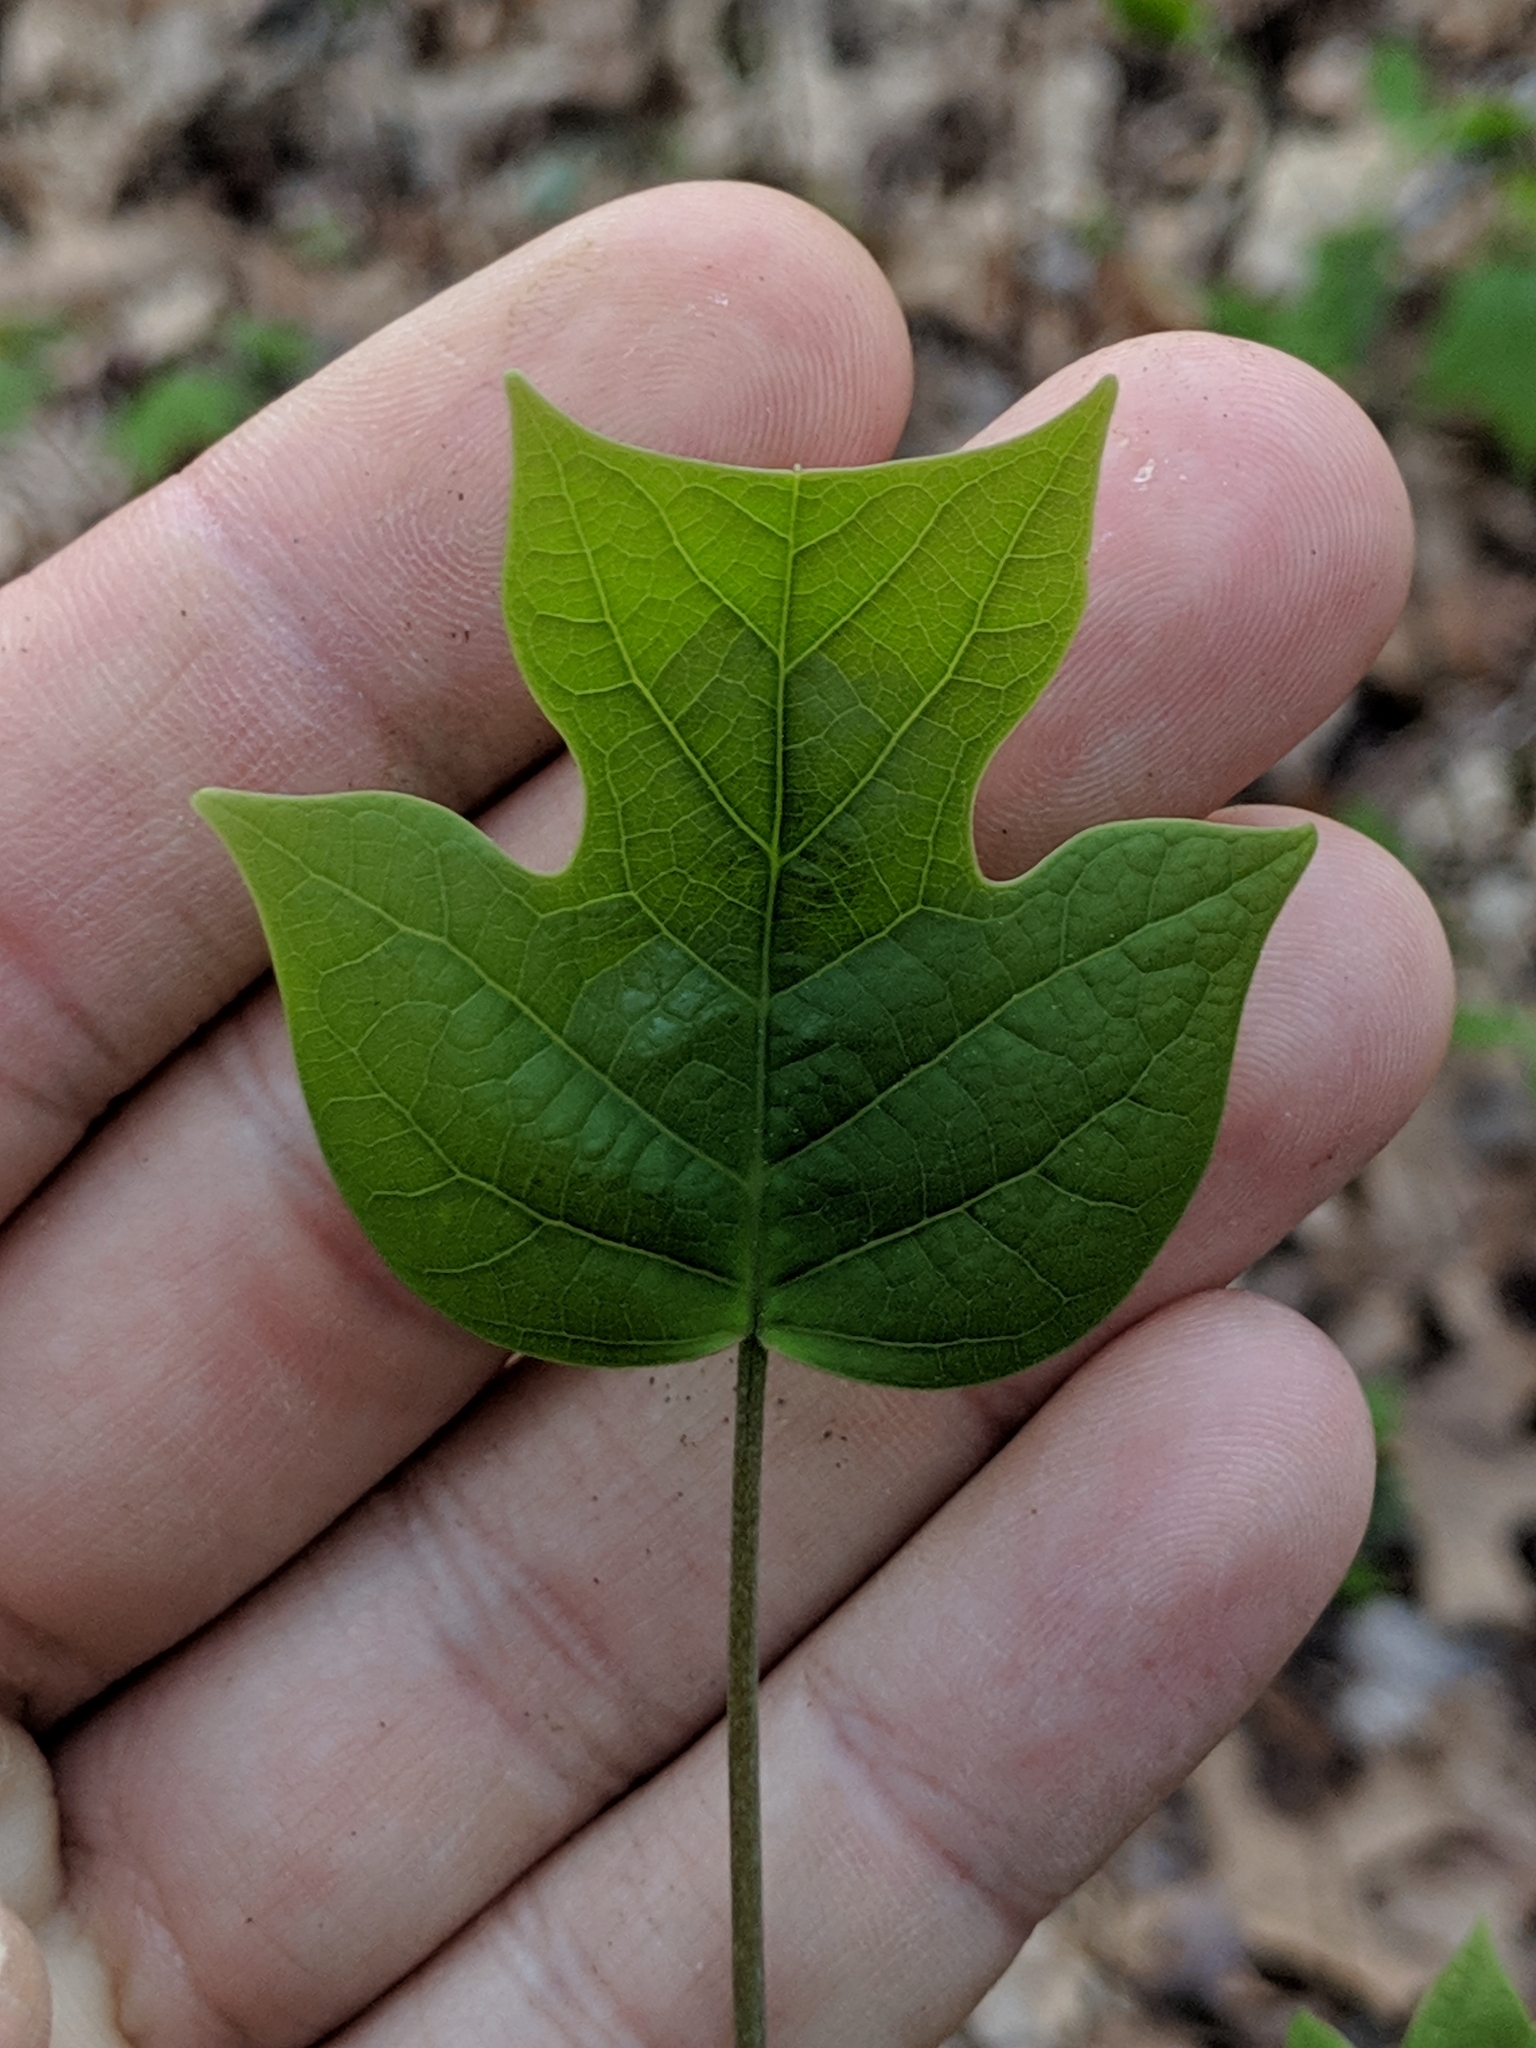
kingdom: Plantae
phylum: Tracheophyta
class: Magnoliopsida
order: Magnoliales
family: Magnoliaceae
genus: Liriodendron
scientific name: Liriodendron tulipifera
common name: Tulip tree
